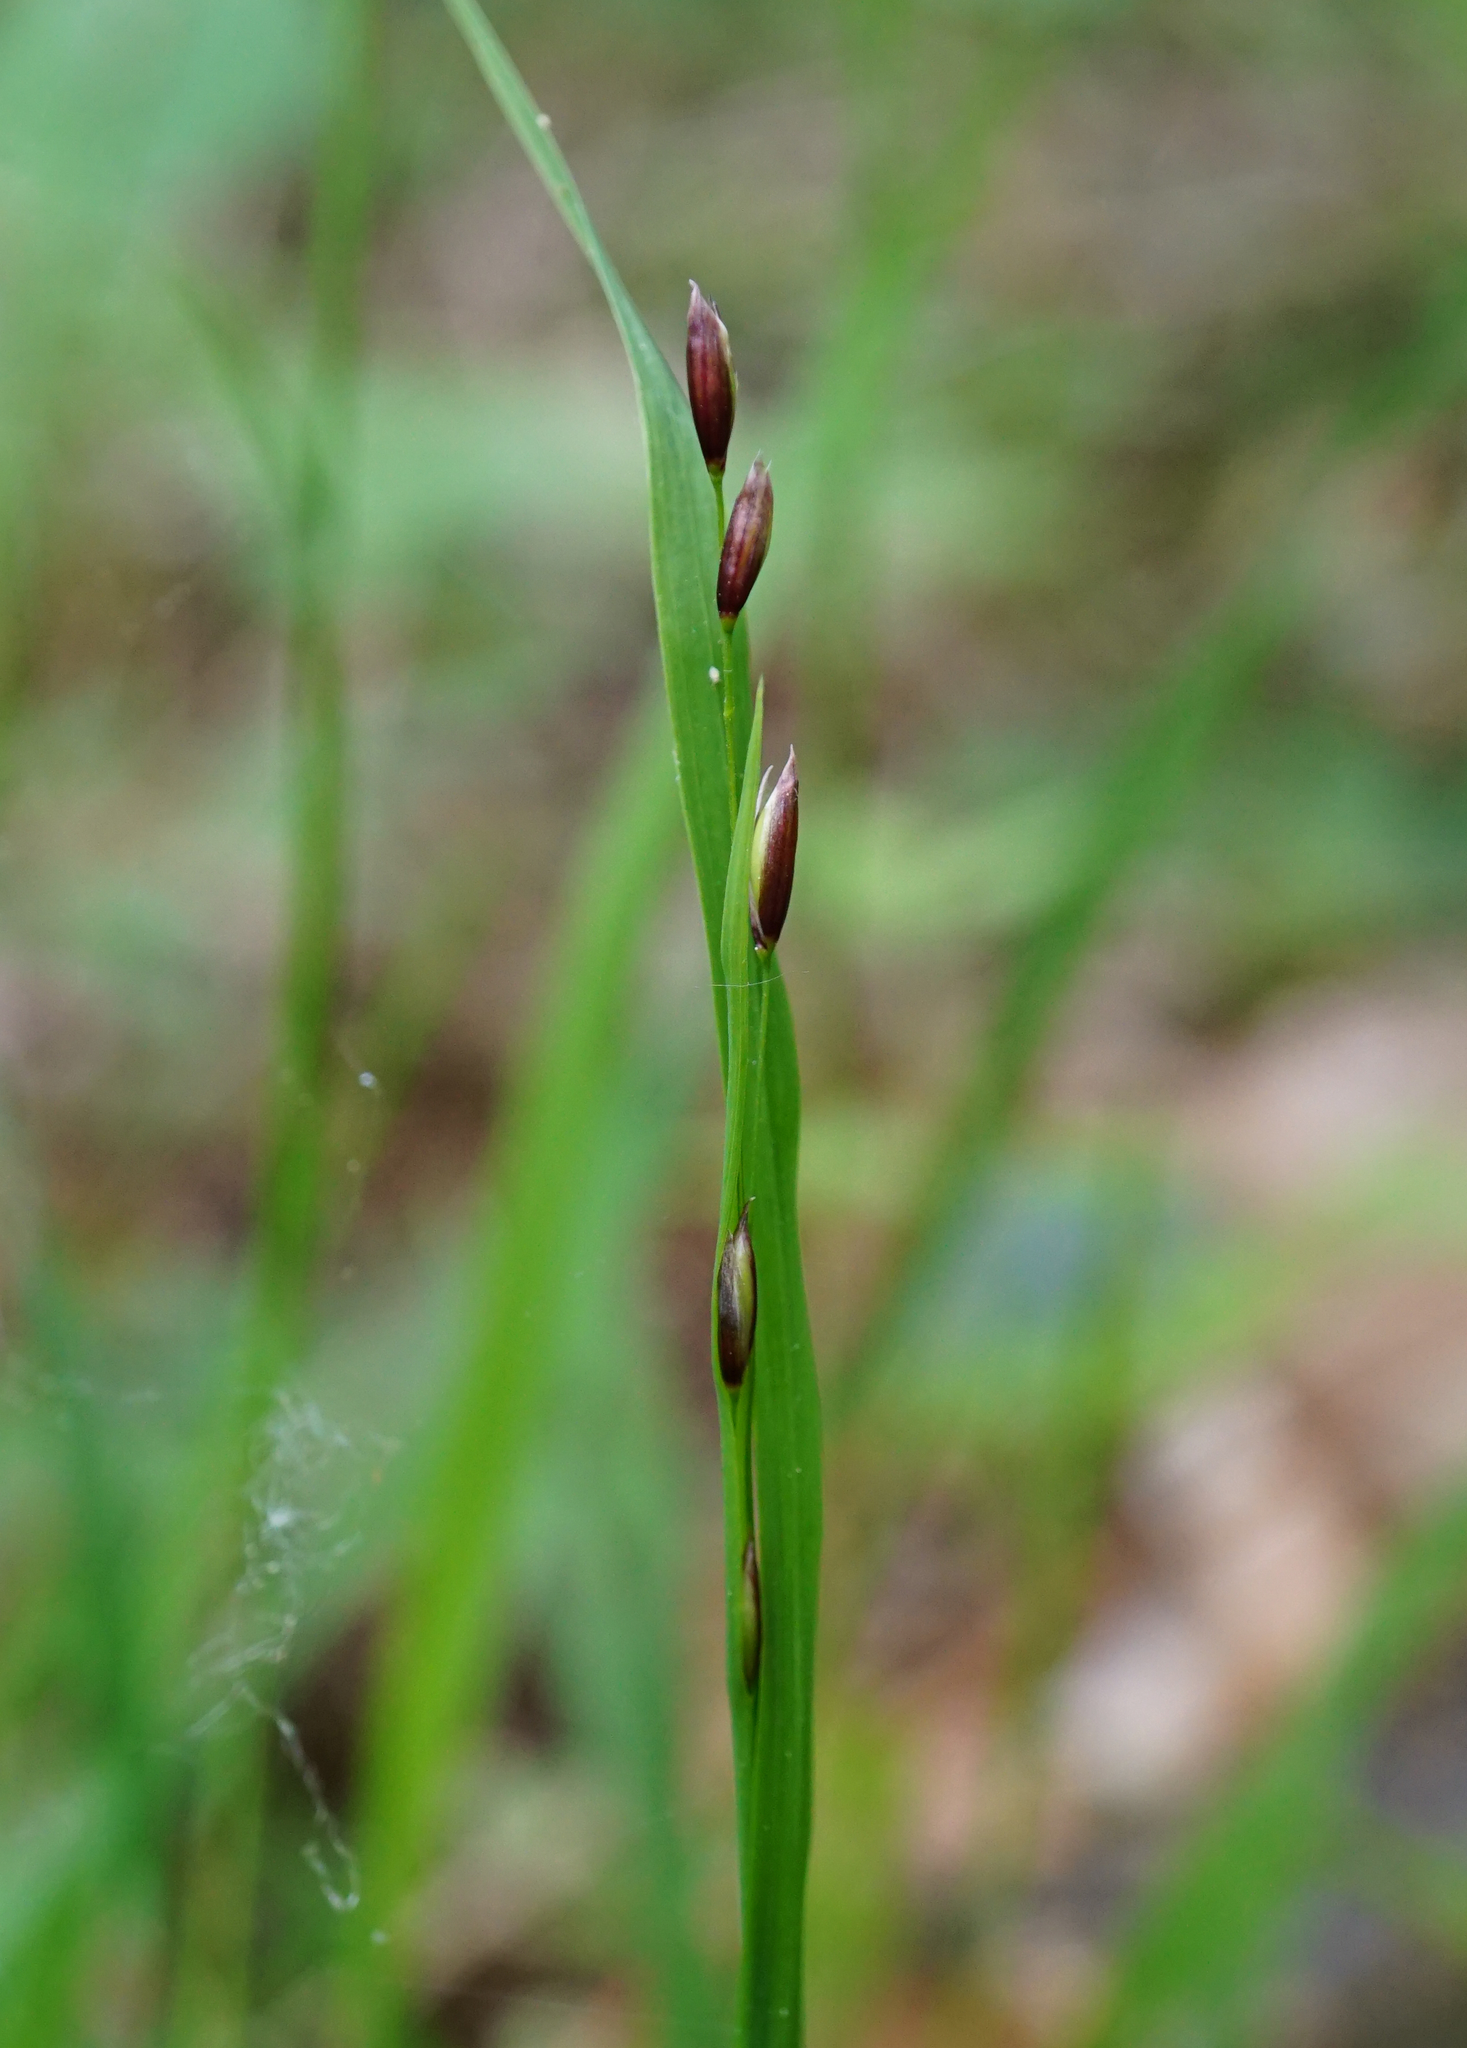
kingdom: Plantae
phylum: Tracheophyta
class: Liliopsida
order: Poales
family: Poaceae
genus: Melica
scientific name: Melica uniflora
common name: Wood melick
